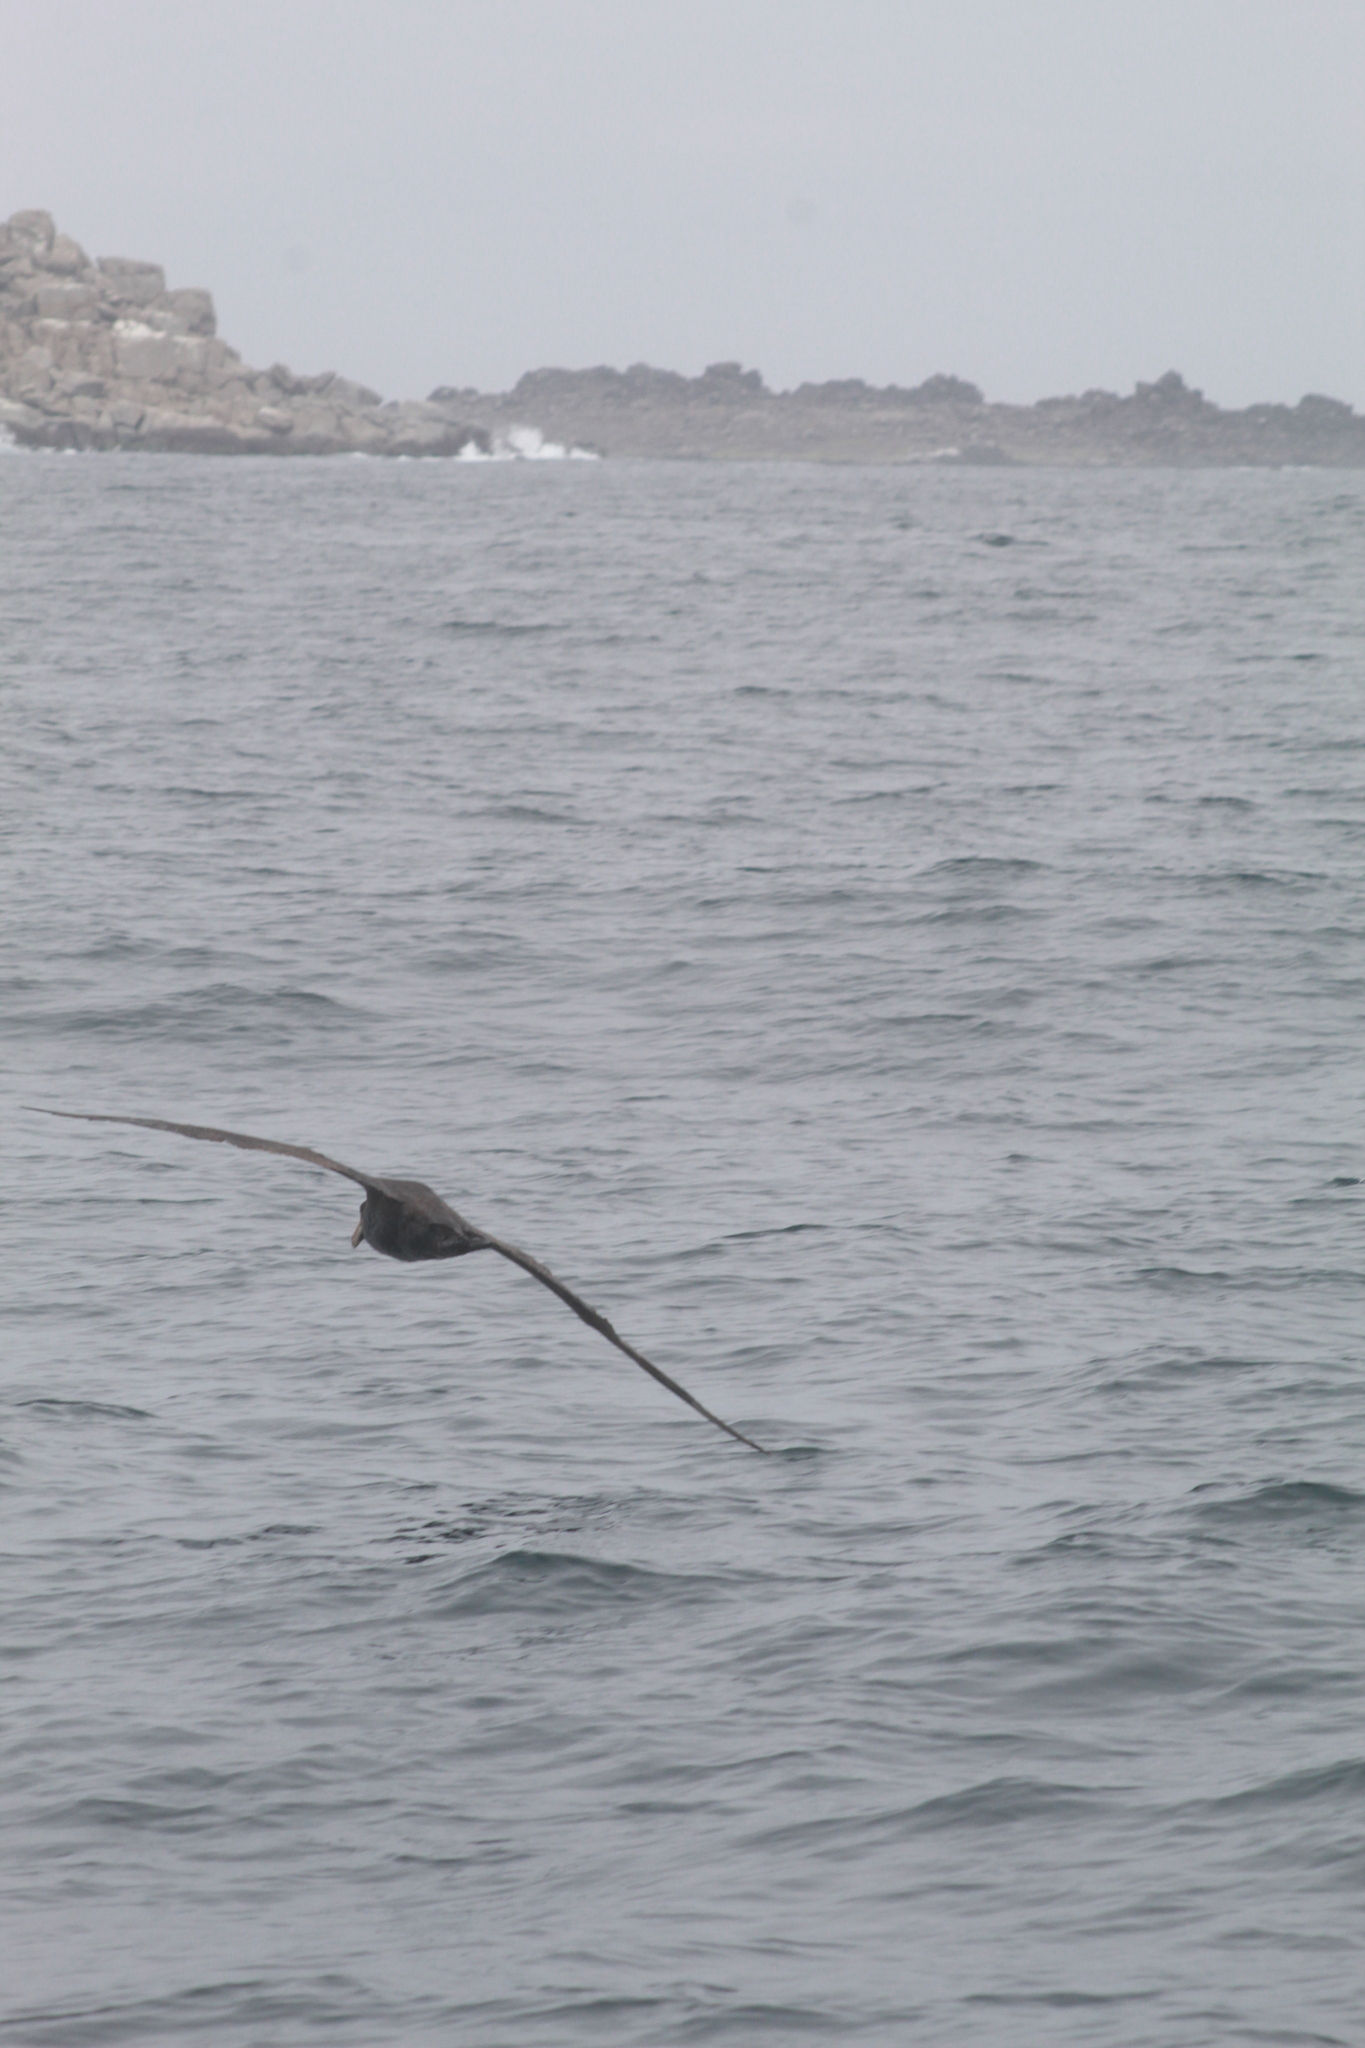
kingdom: Animalia
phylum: Chordata
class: Aves
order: Procellariiformes
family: Procellariidae
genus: Macronectes
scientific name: Macronectes giganteus
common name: Southern giant petrel
